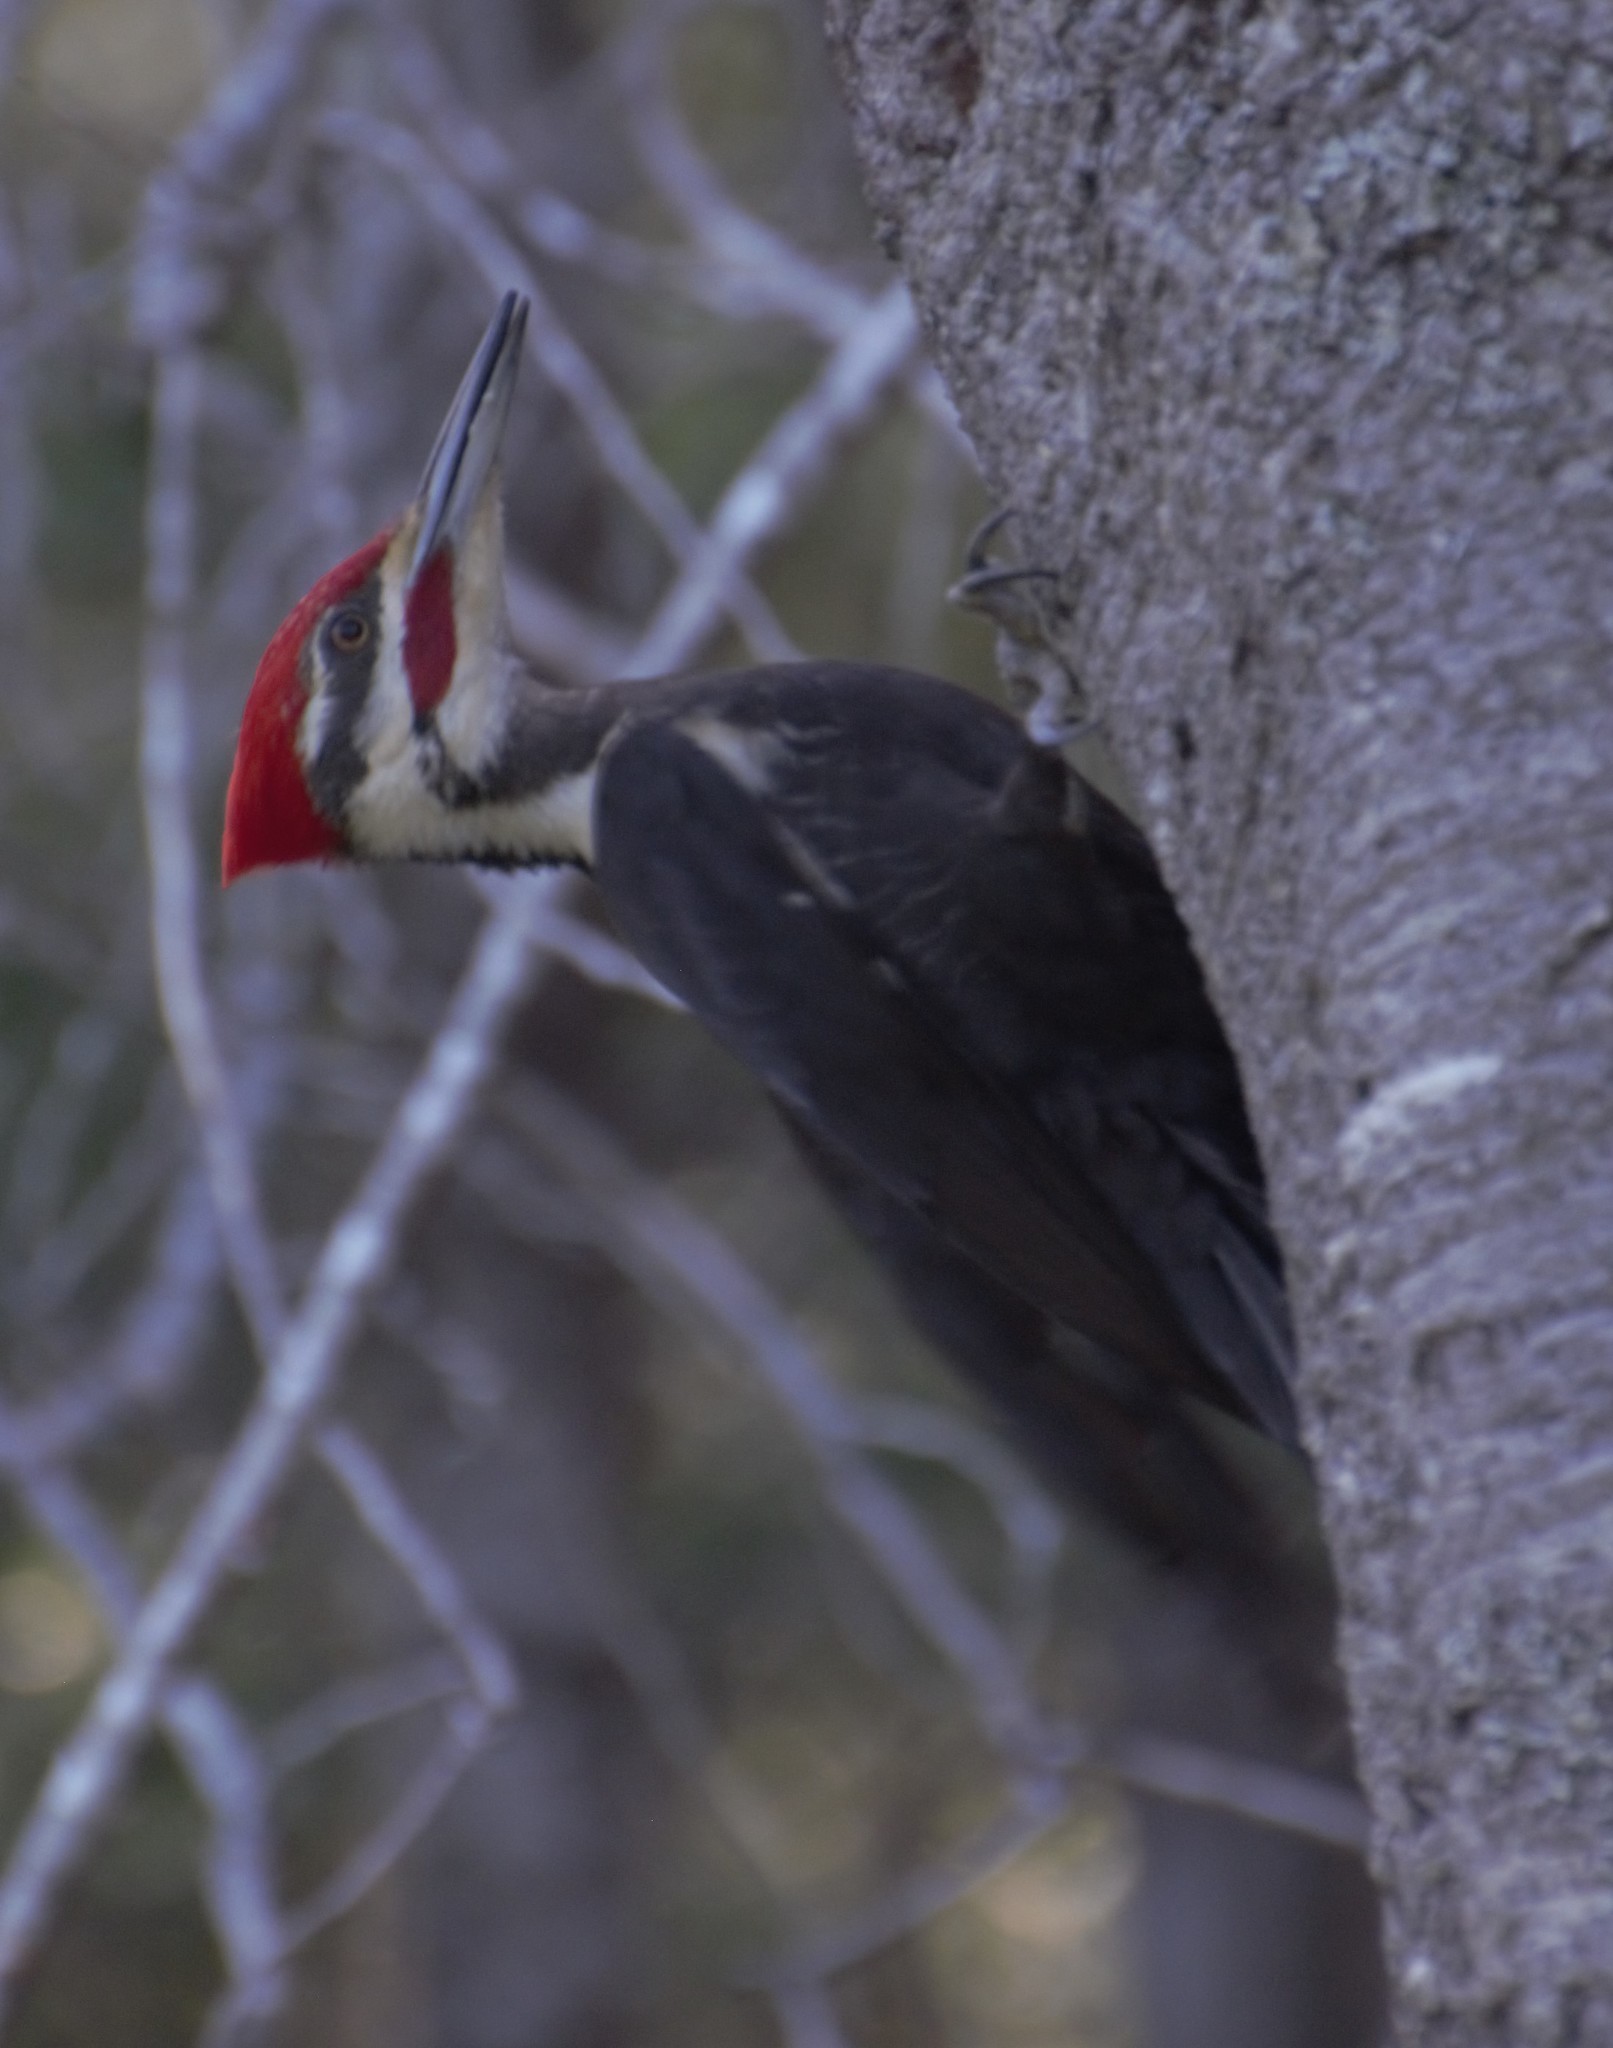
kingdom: Animalia
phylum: Chordata
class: Aves
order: Piciformes
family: Picidae
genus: Dryocopus
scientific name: Dryocopus pileatus
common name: Pileated woodpecker
